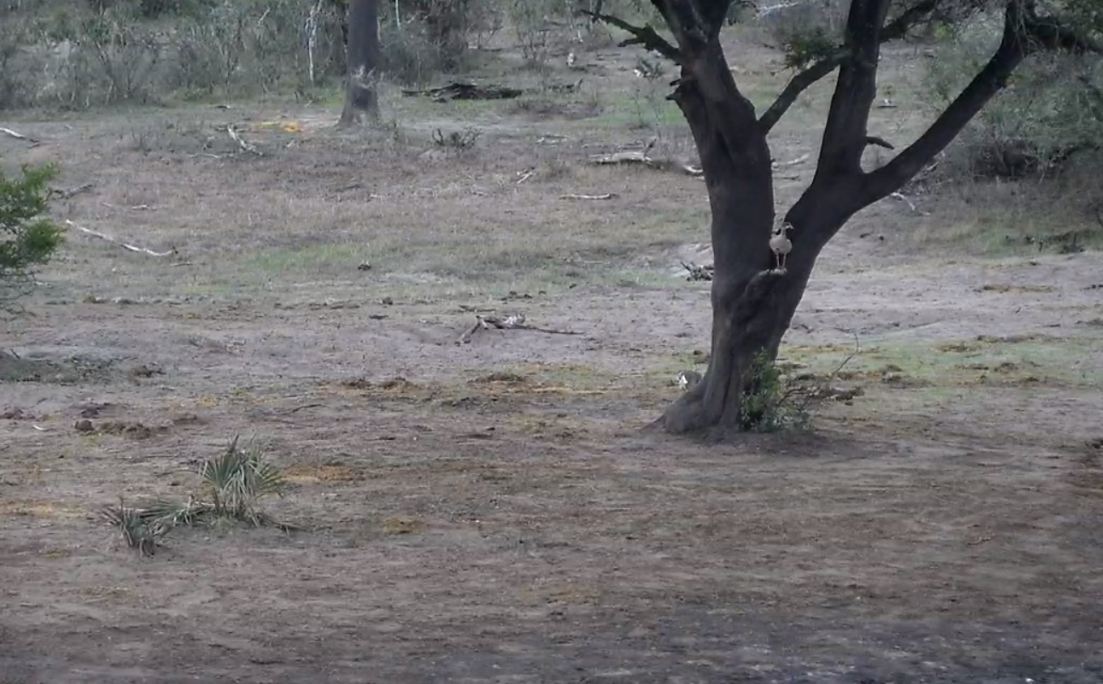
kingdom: Animalia
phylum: Chordata
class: Aves
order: Anseriformes
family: Anatidae
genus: Alopochen
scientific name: Alopochen aegyptiaca
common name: Egyptian goose
